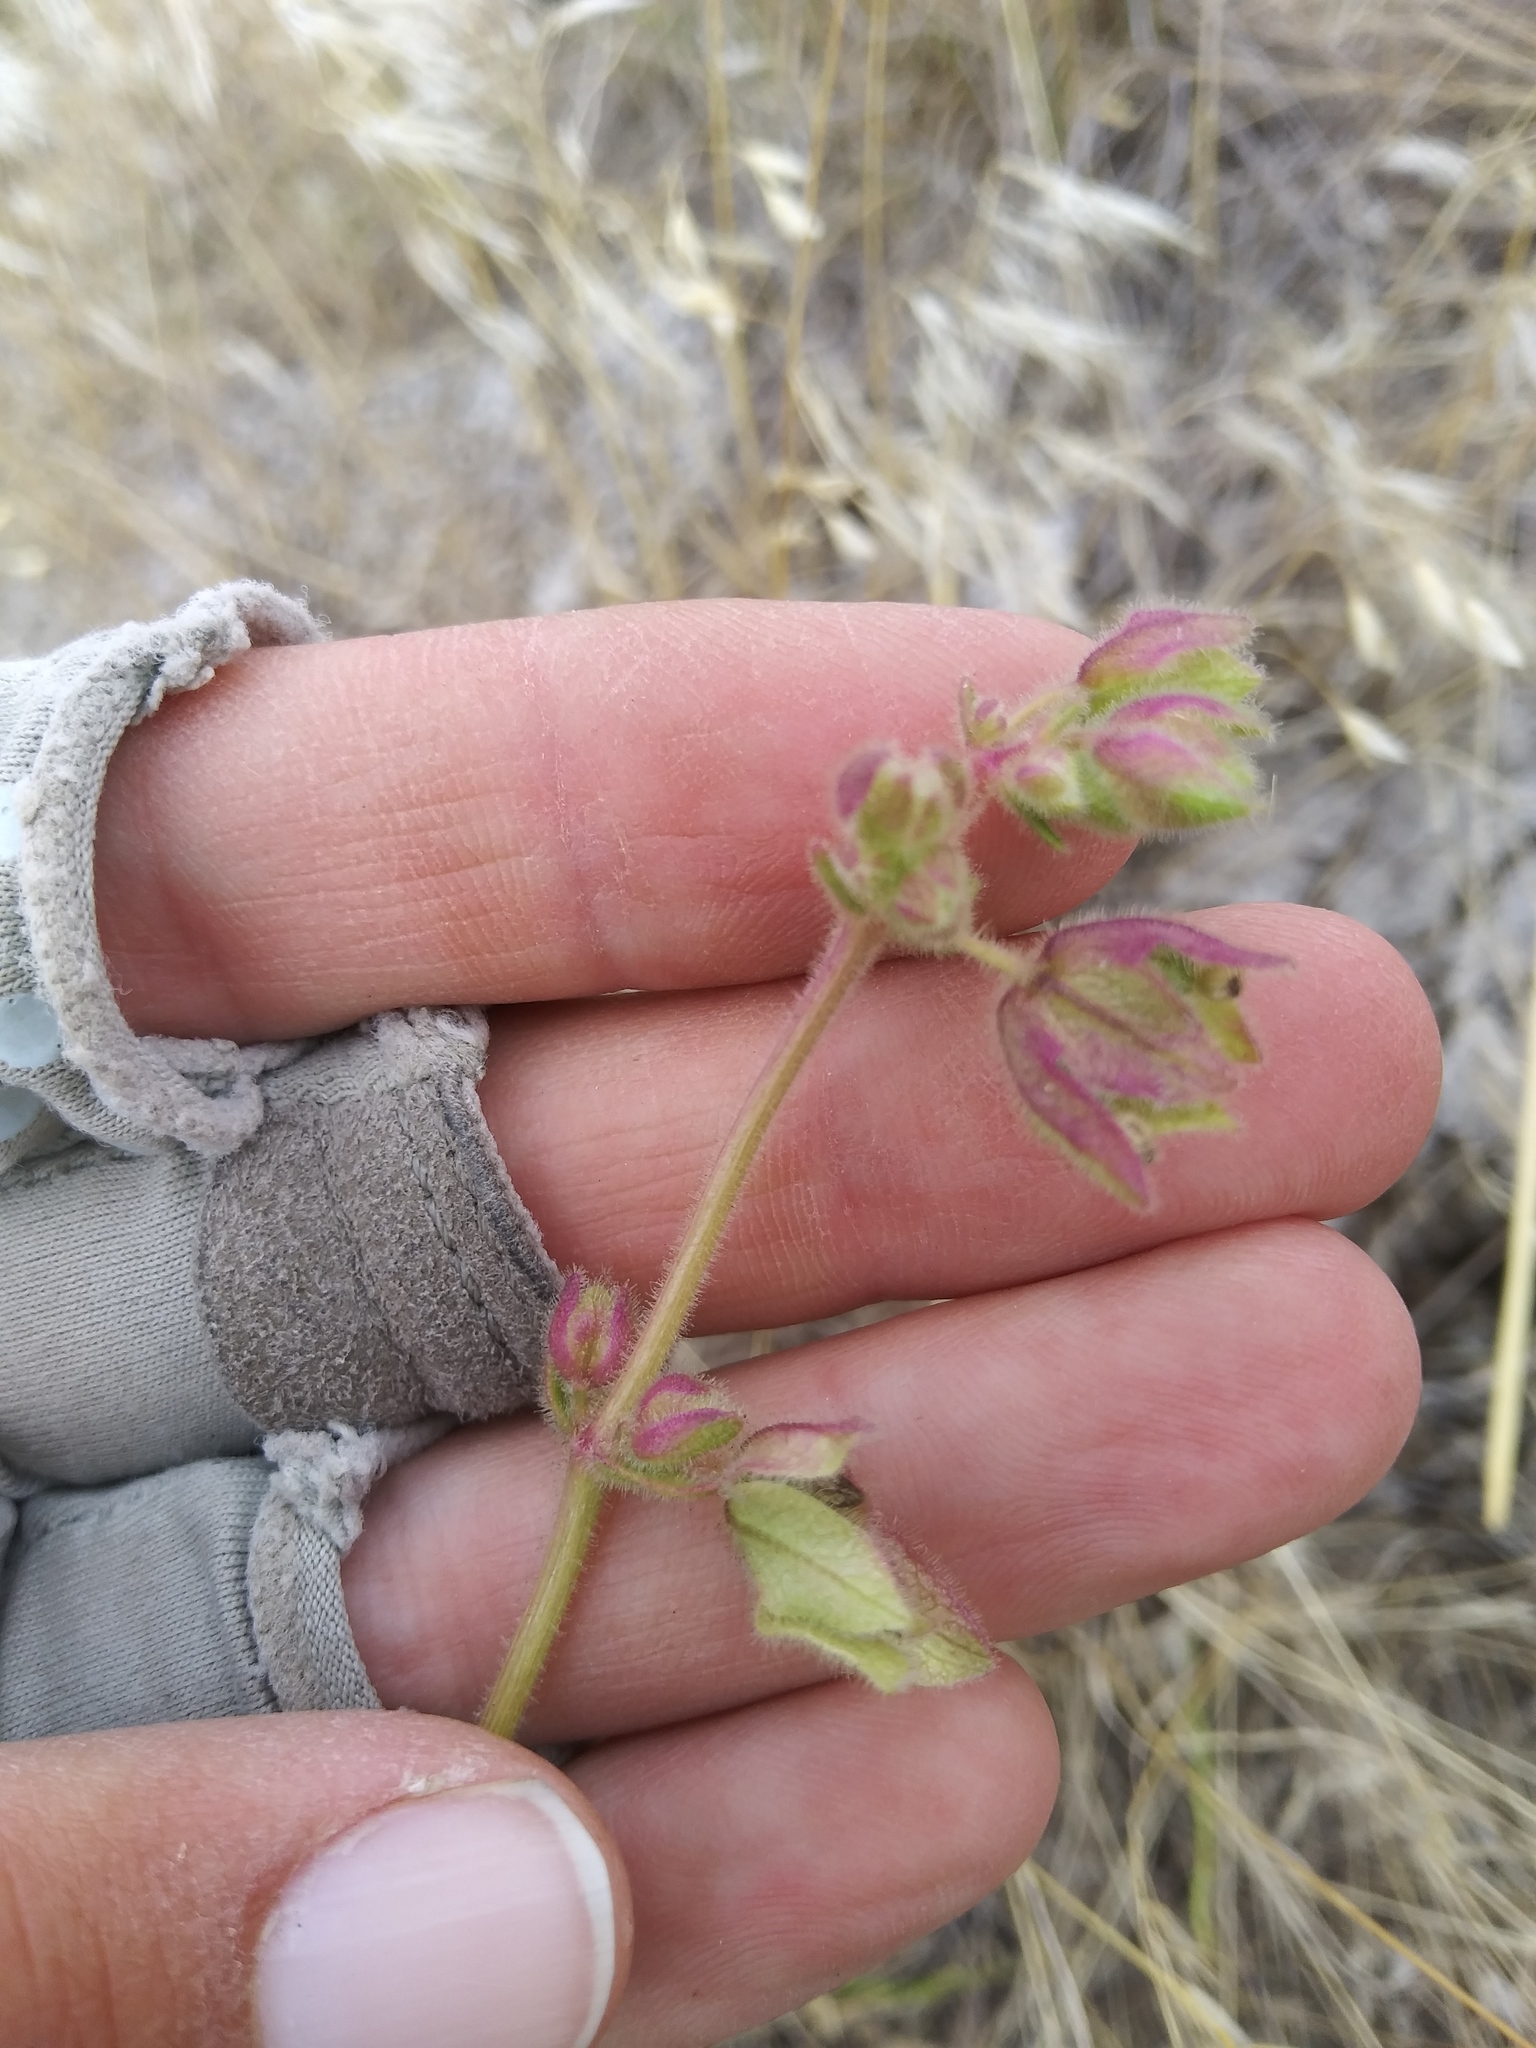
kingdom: Plantae
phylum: Tracheophyta
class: Magnoliopsida
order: Caryophyllales
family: Nyctaginaceae
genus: Mirabilis
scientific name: Mirabilis linearis
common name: Linear-leaved four-o'clock
